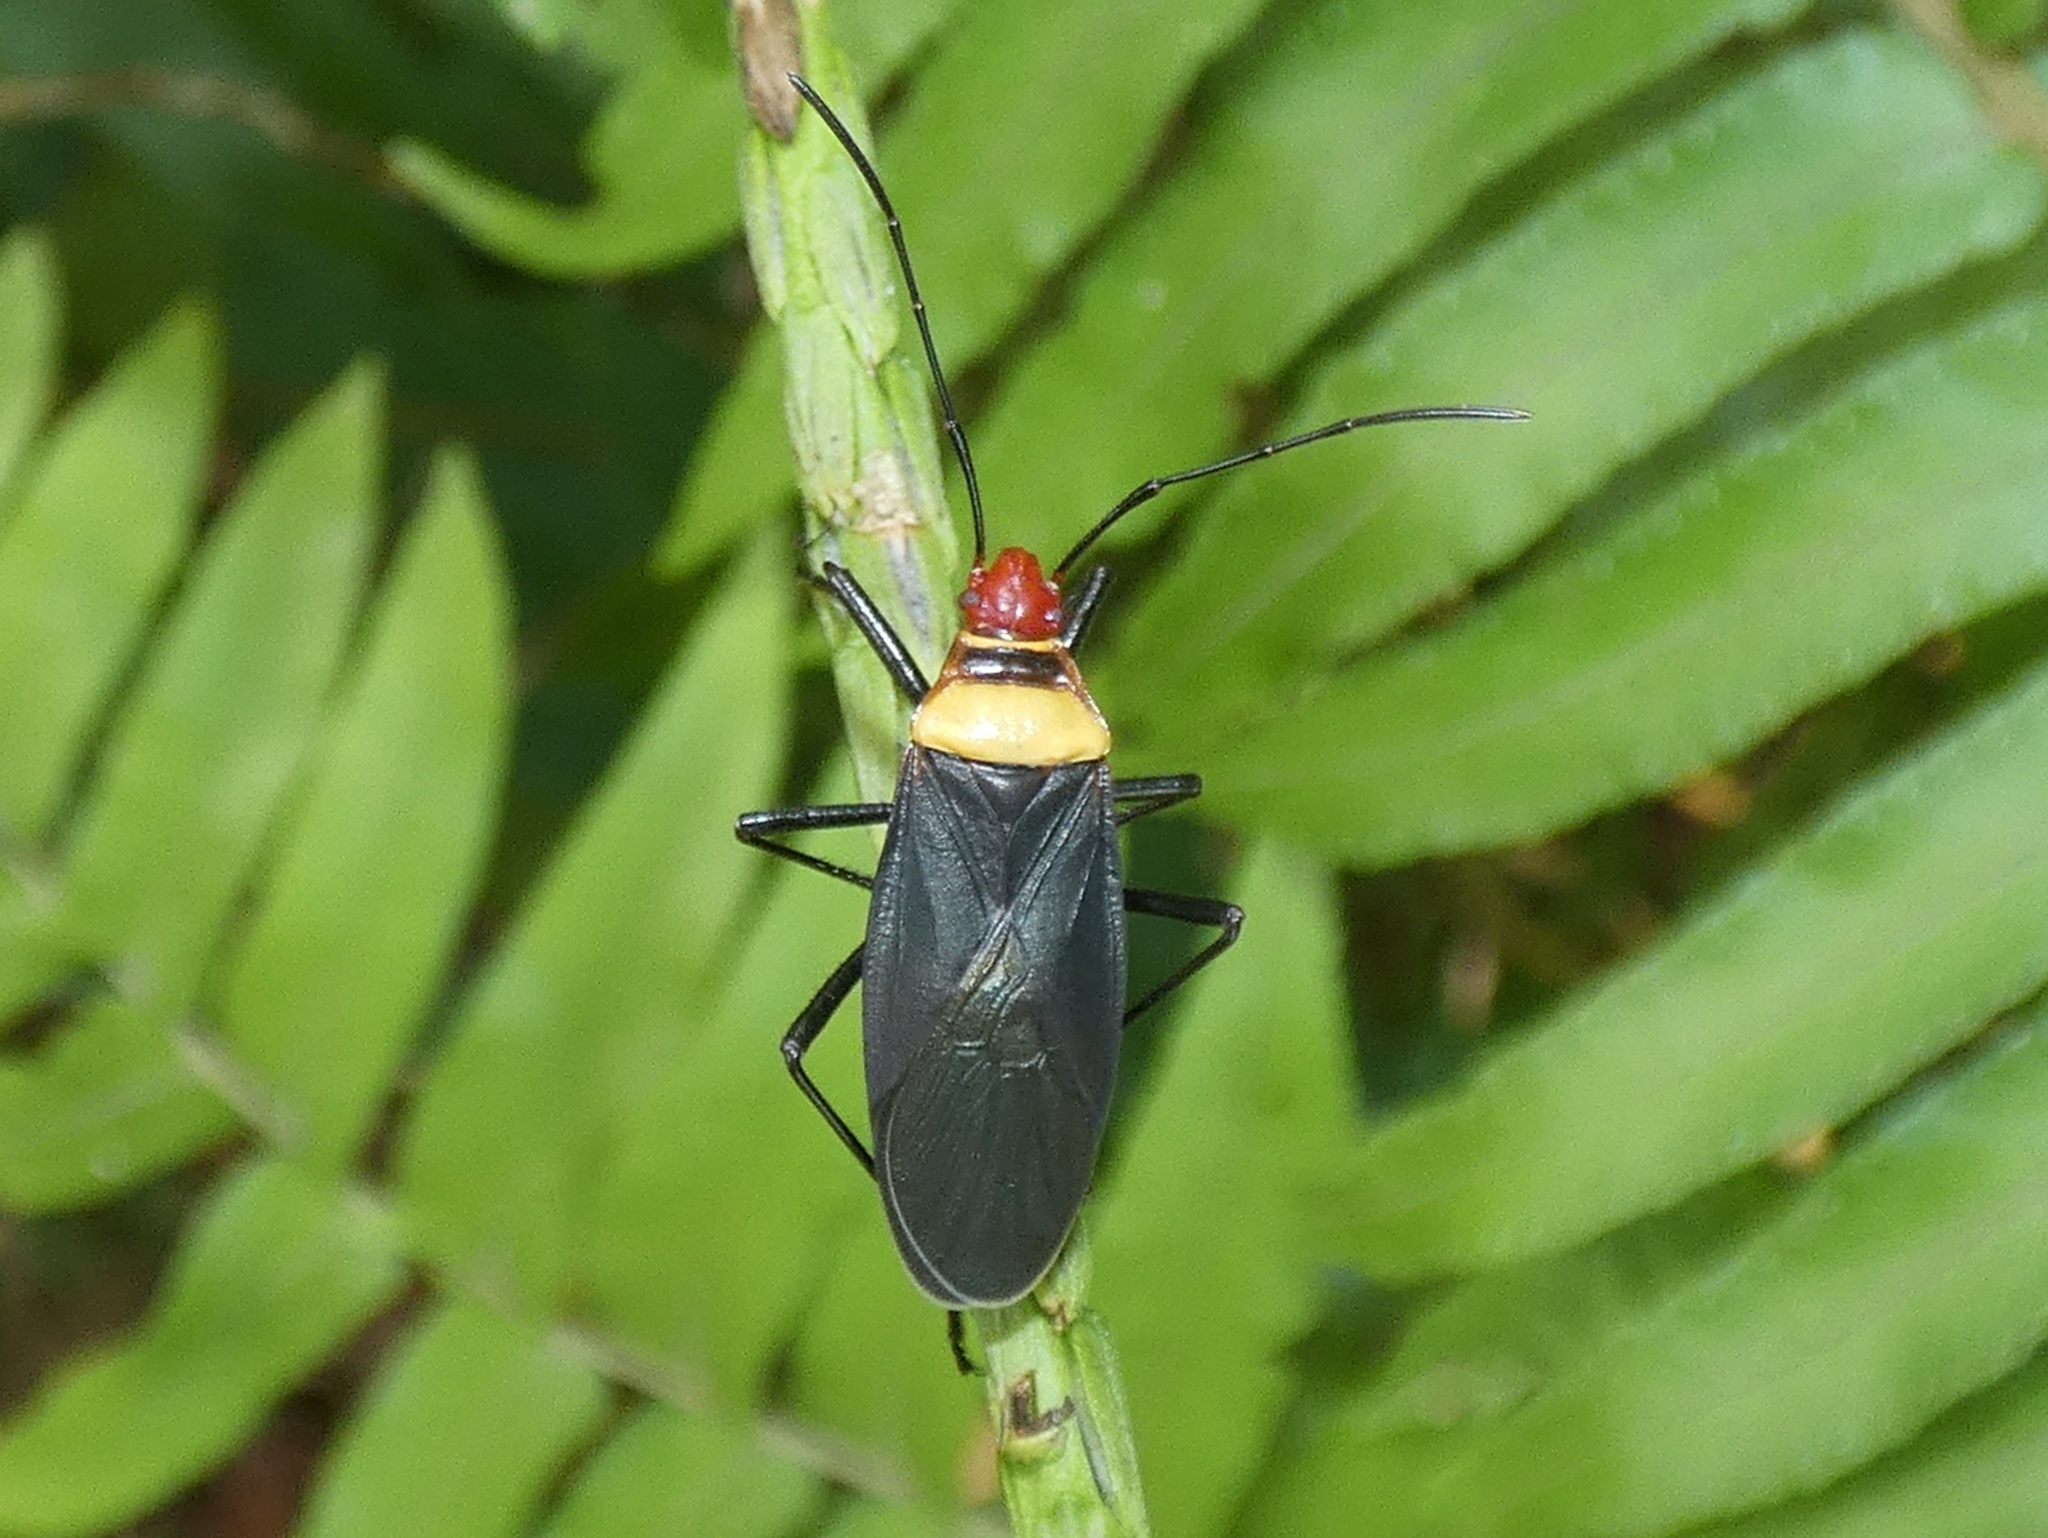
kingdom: Animalia
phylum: Arthropoda
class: Insecta
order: Hemiptera
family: Pyrrhocoridae
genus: Dysdercus
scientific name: Dysdercus
